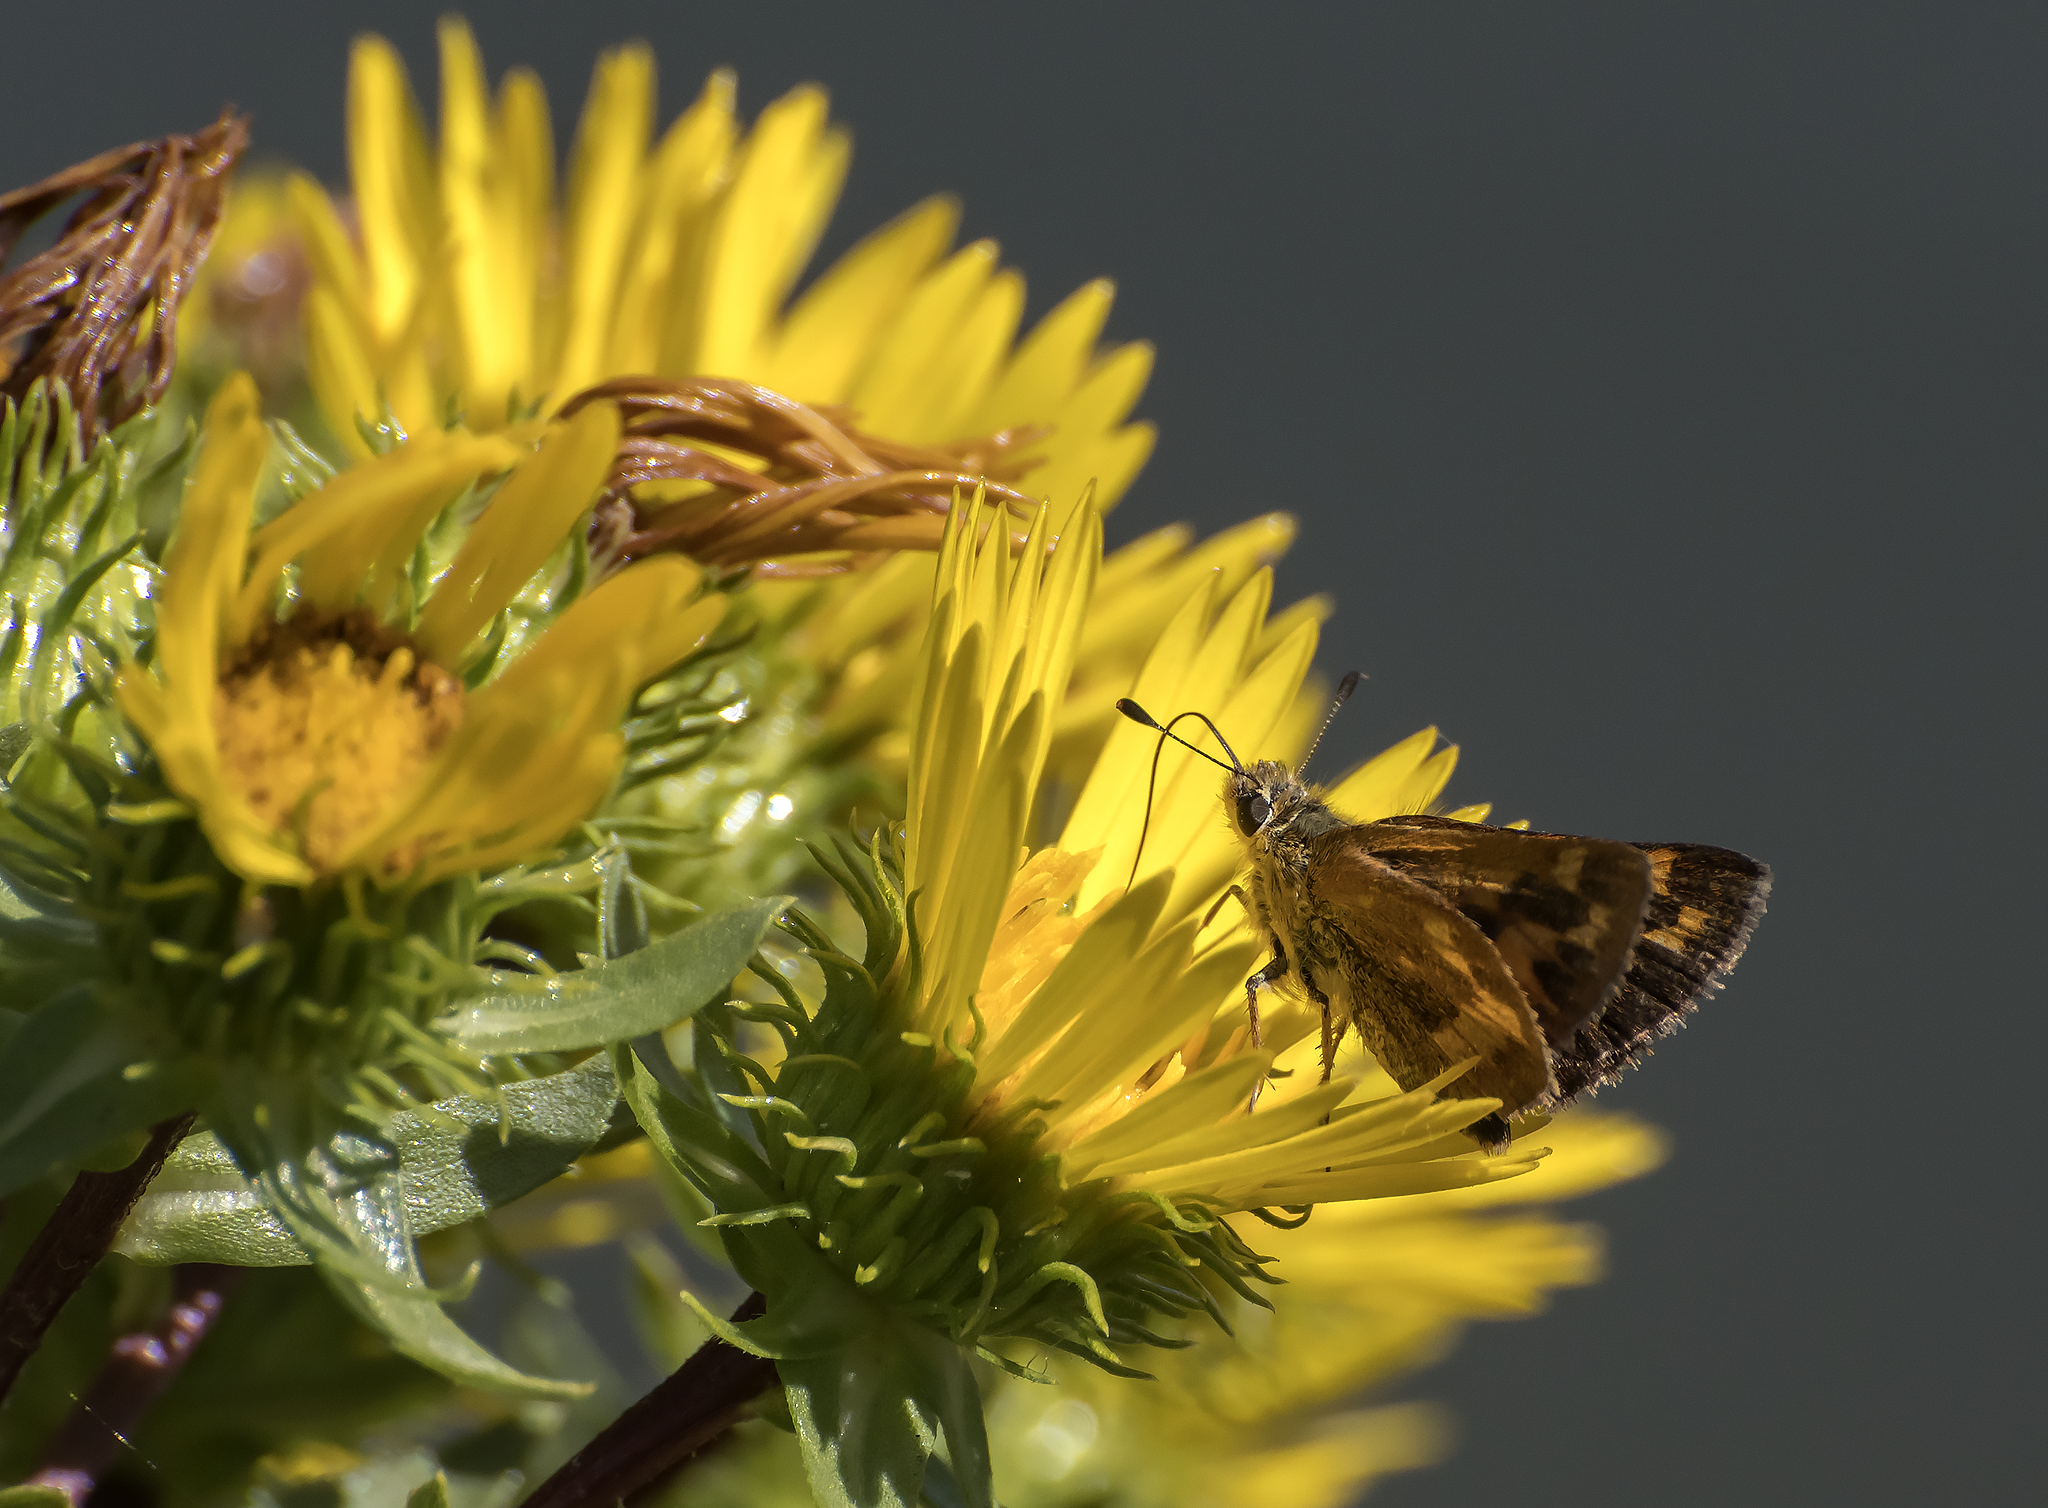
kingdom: Animalia
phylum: Arthropoda
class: Insecta
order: Lepidoptera
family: Hesperiidae
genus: Ochlodes
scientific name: Ochlodes sylvanoides
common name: Woodland skipper
